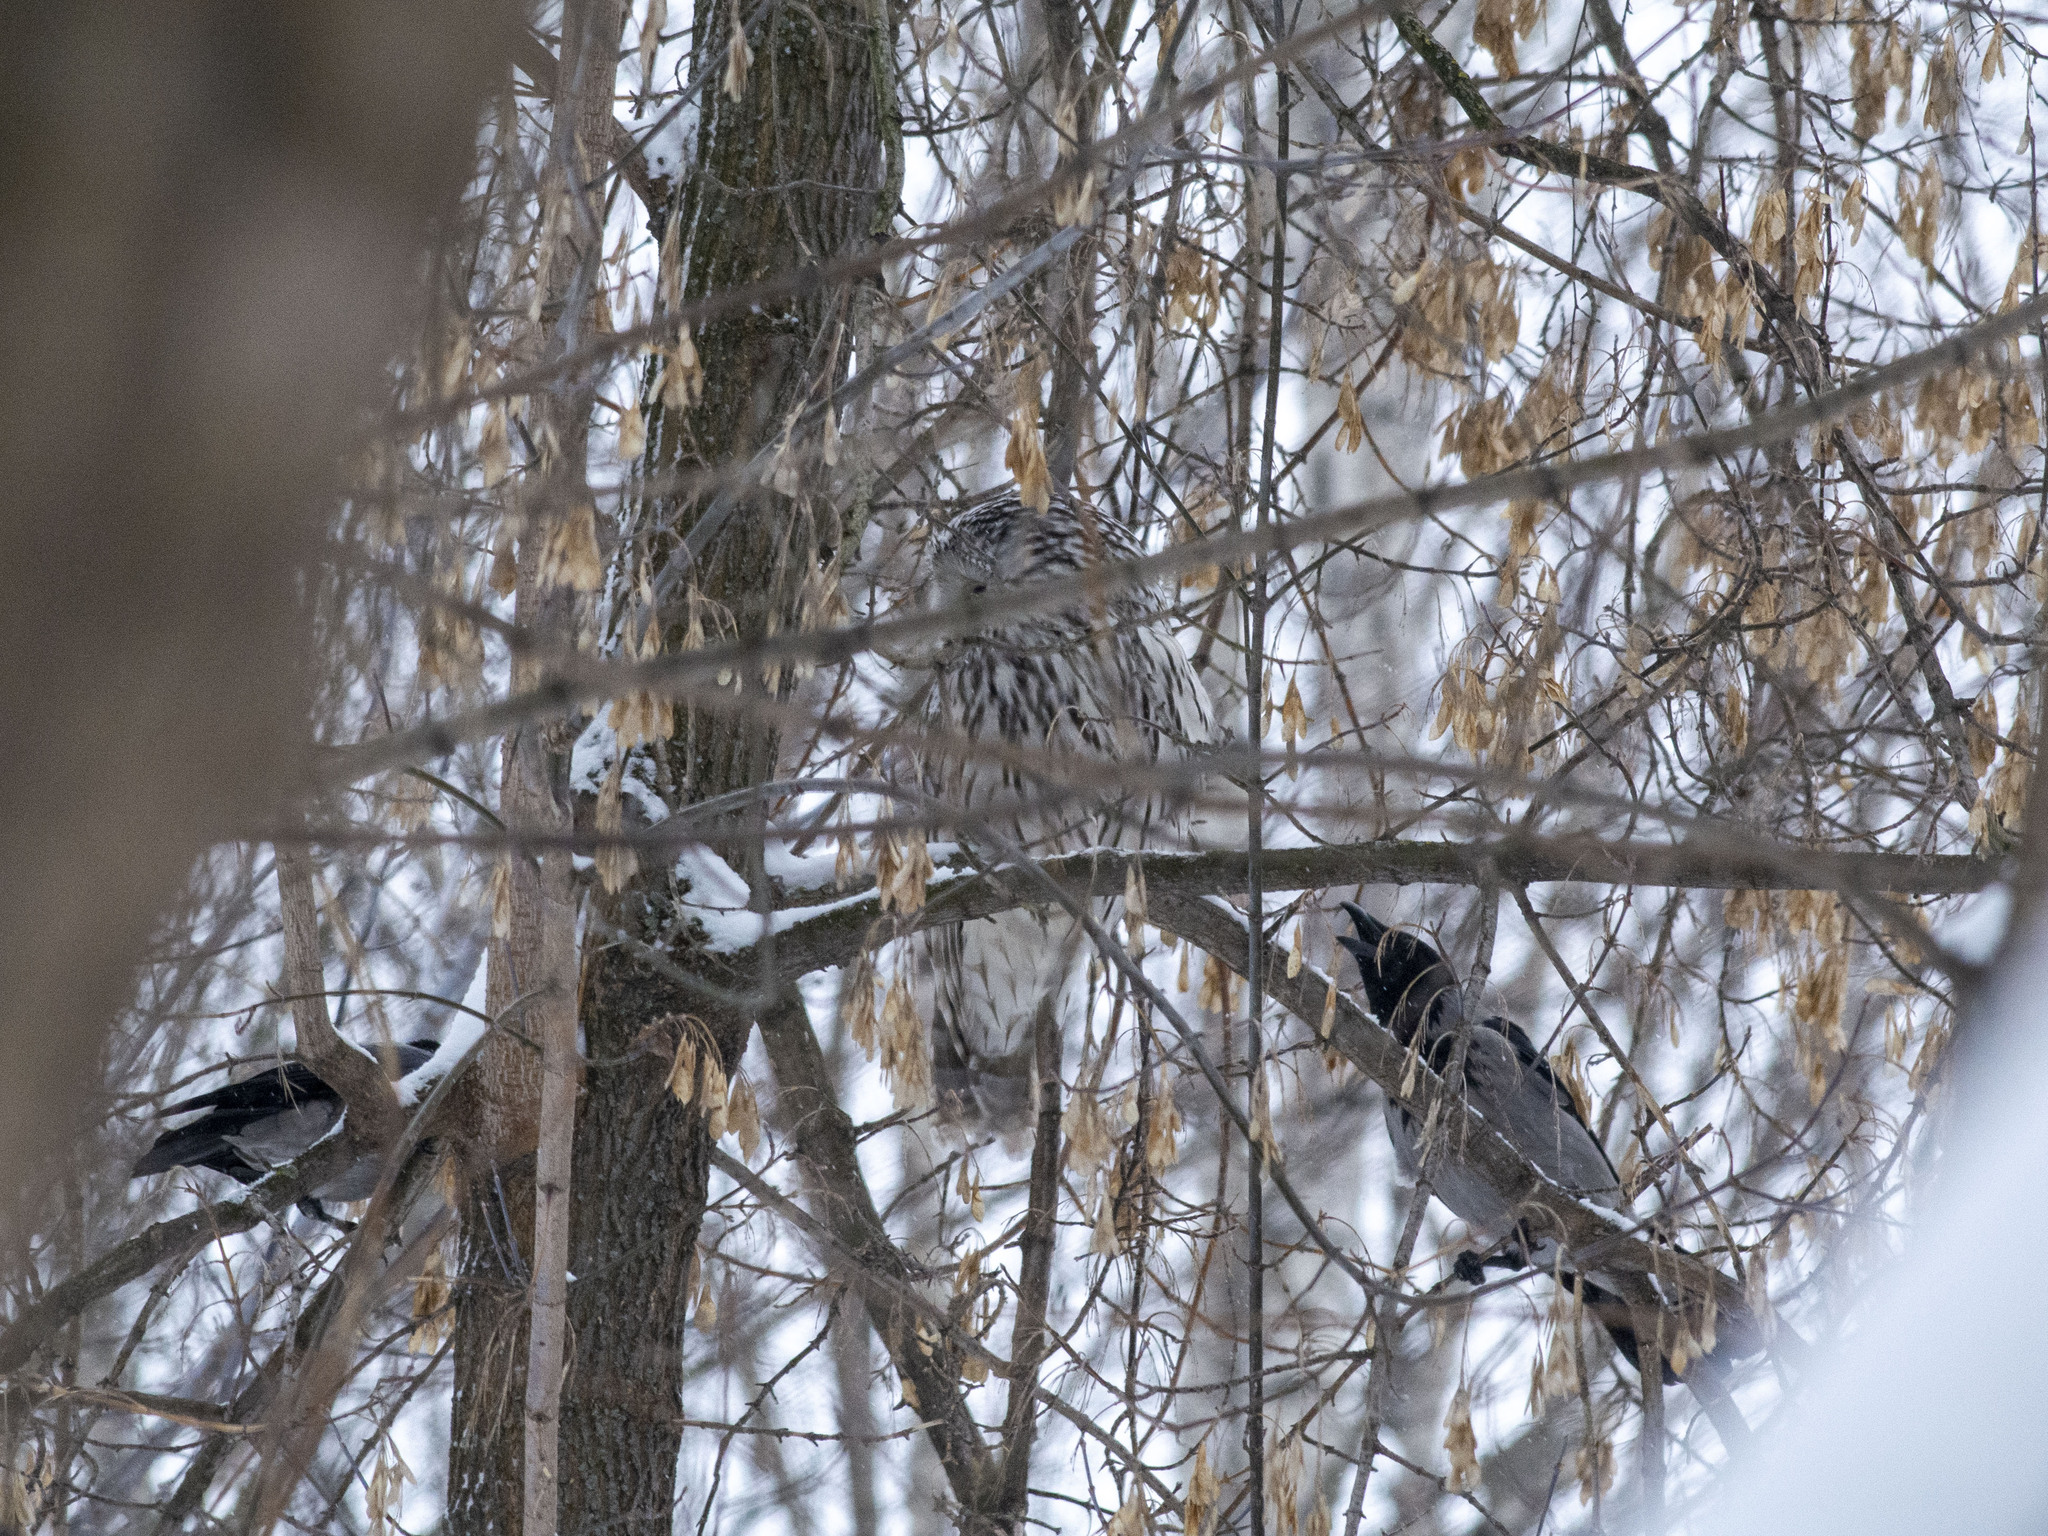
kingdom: Animalia
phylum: Chordata
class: Aves
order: Strigiformes
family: Strigidae
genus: Strix
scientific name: Strix uralensis
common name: Ural owl
